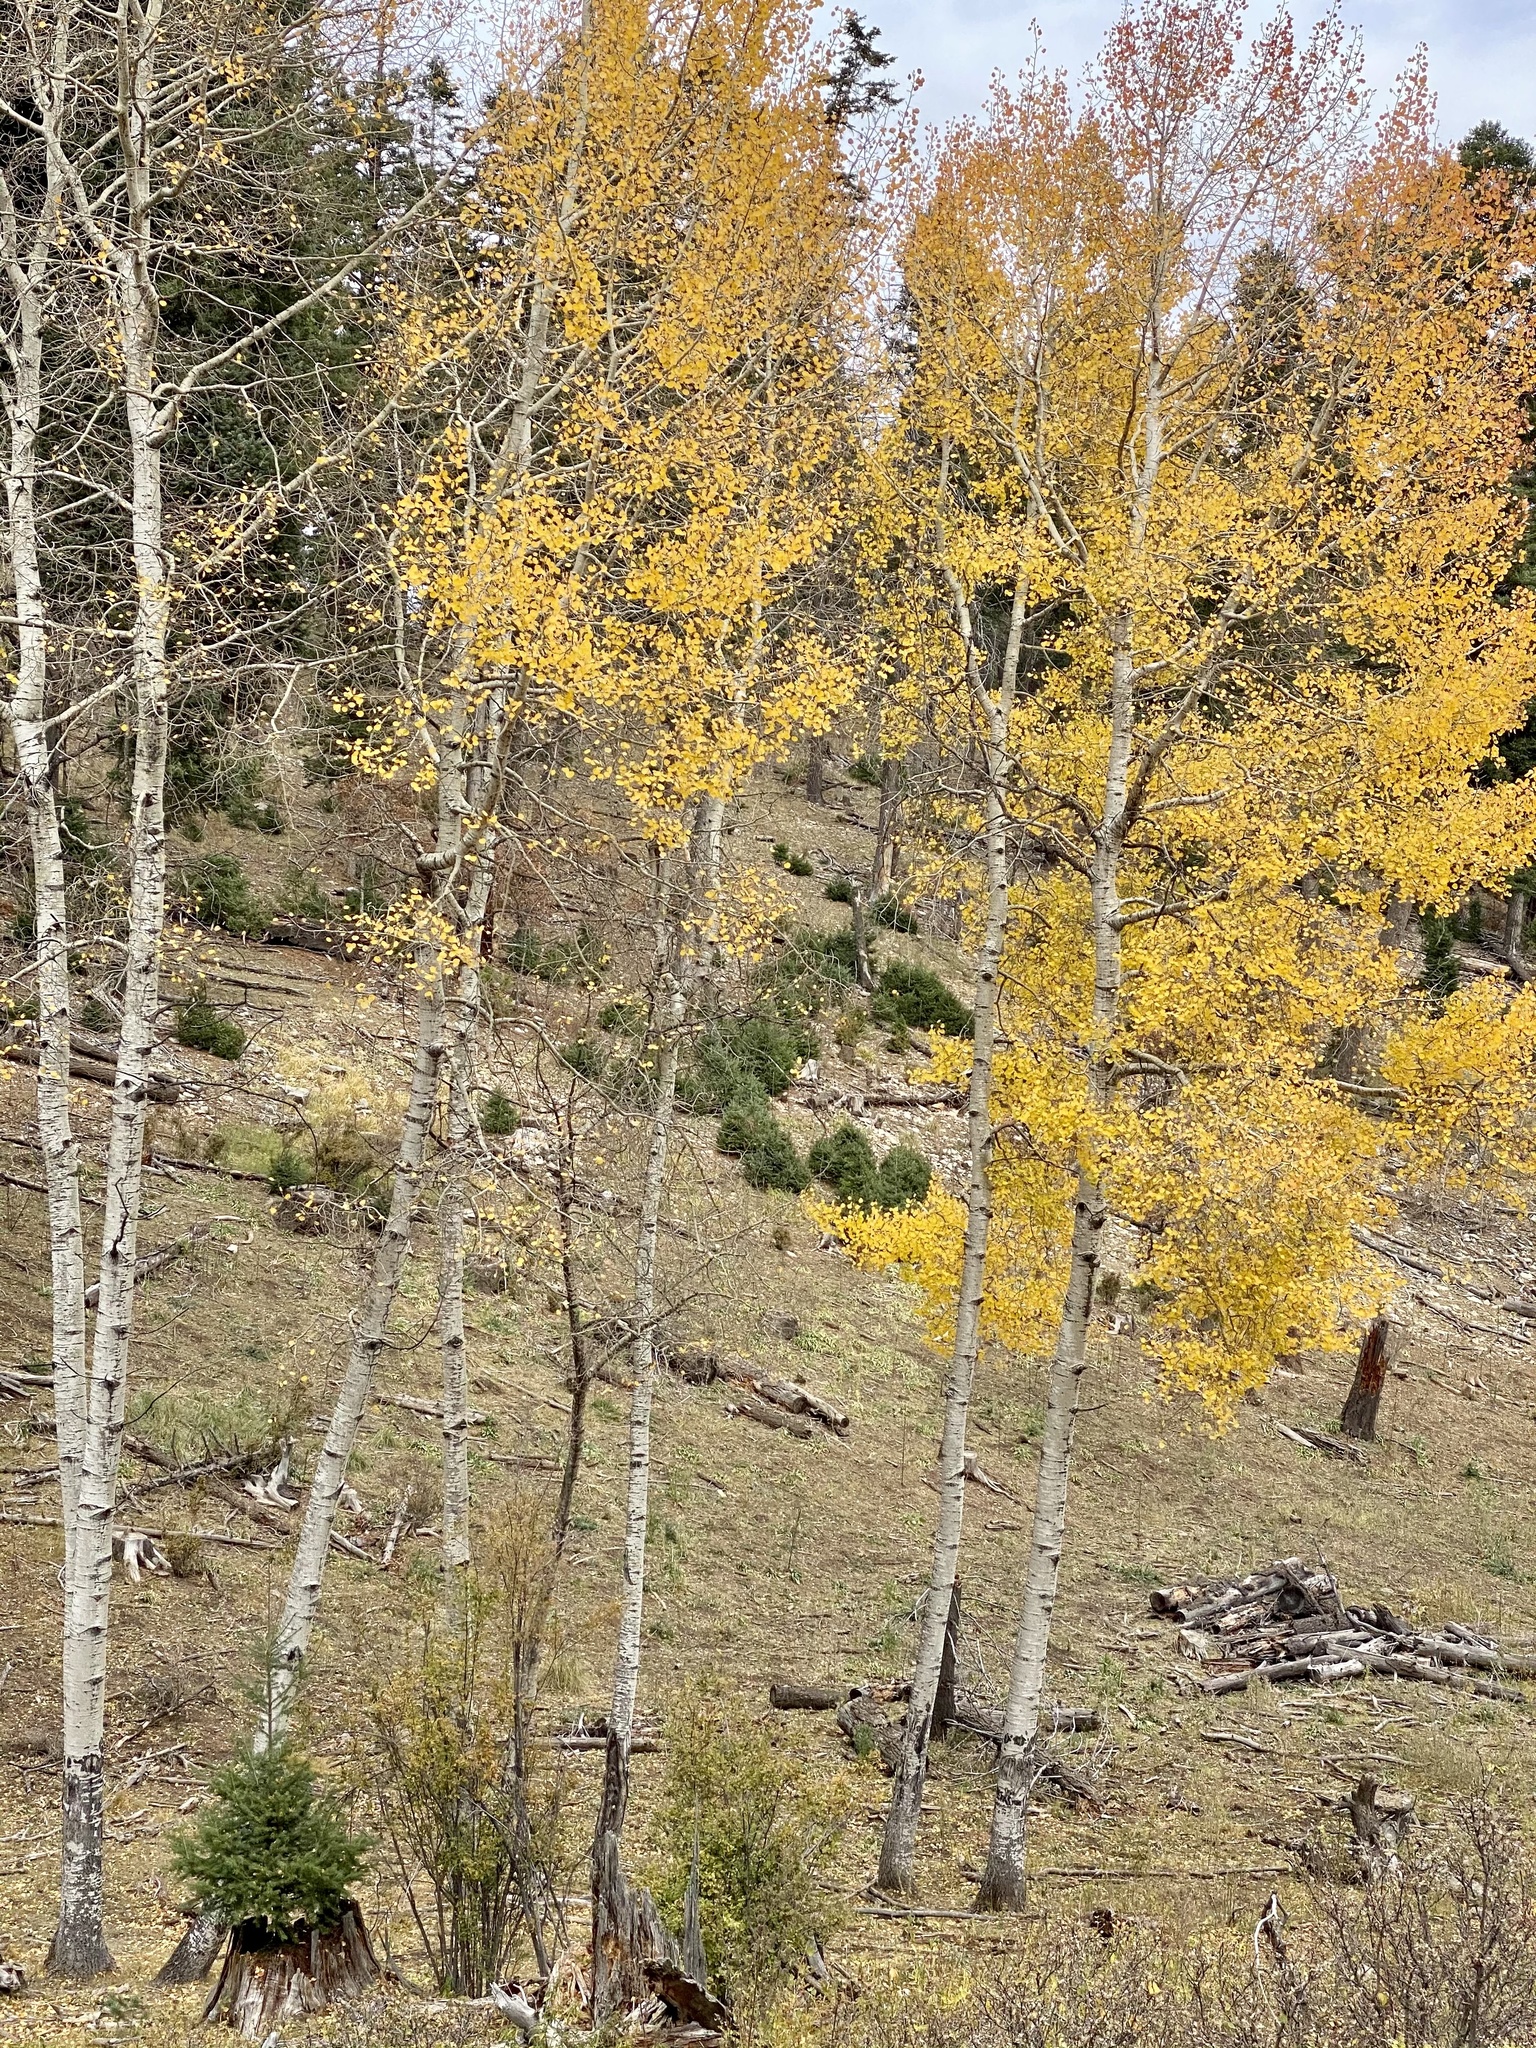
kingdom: Plantae
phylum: Tracheophyta
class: Magnoliopsida
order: Malpighiales
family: Salicaceae
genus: Populus
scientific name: Populus tremuloides
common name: Quaking aspen
